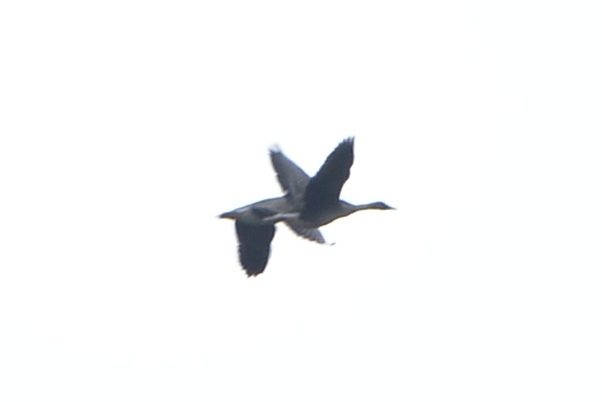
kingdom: Animalia
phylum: Chordata
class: Aves
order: Anseriformes
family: Anatidae
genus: Anser
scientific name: Anser fabalis
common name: Bean goose
